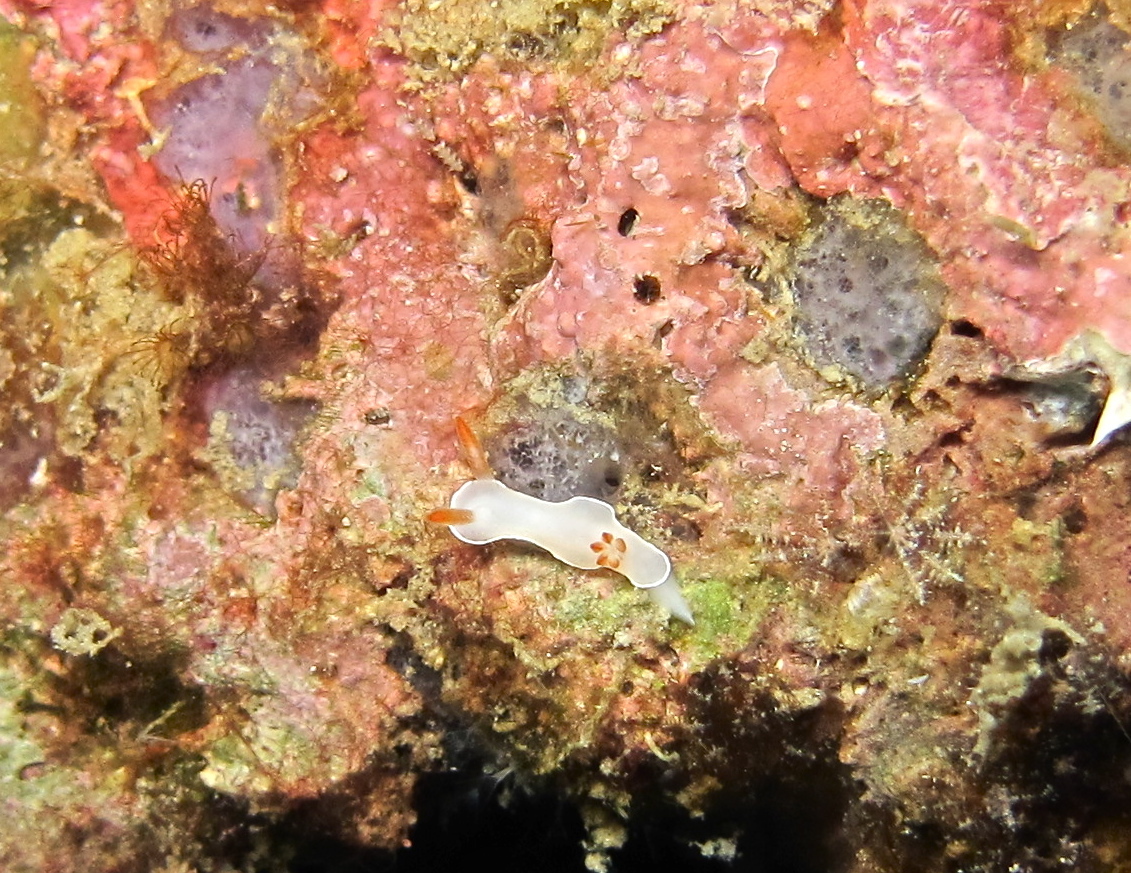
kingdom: Animalia
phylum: Mollusca
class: Gastropoda
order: Nudibranchia
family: Chromodorididae
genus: Hypselodoris
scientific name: Hypselodoris bullockii
